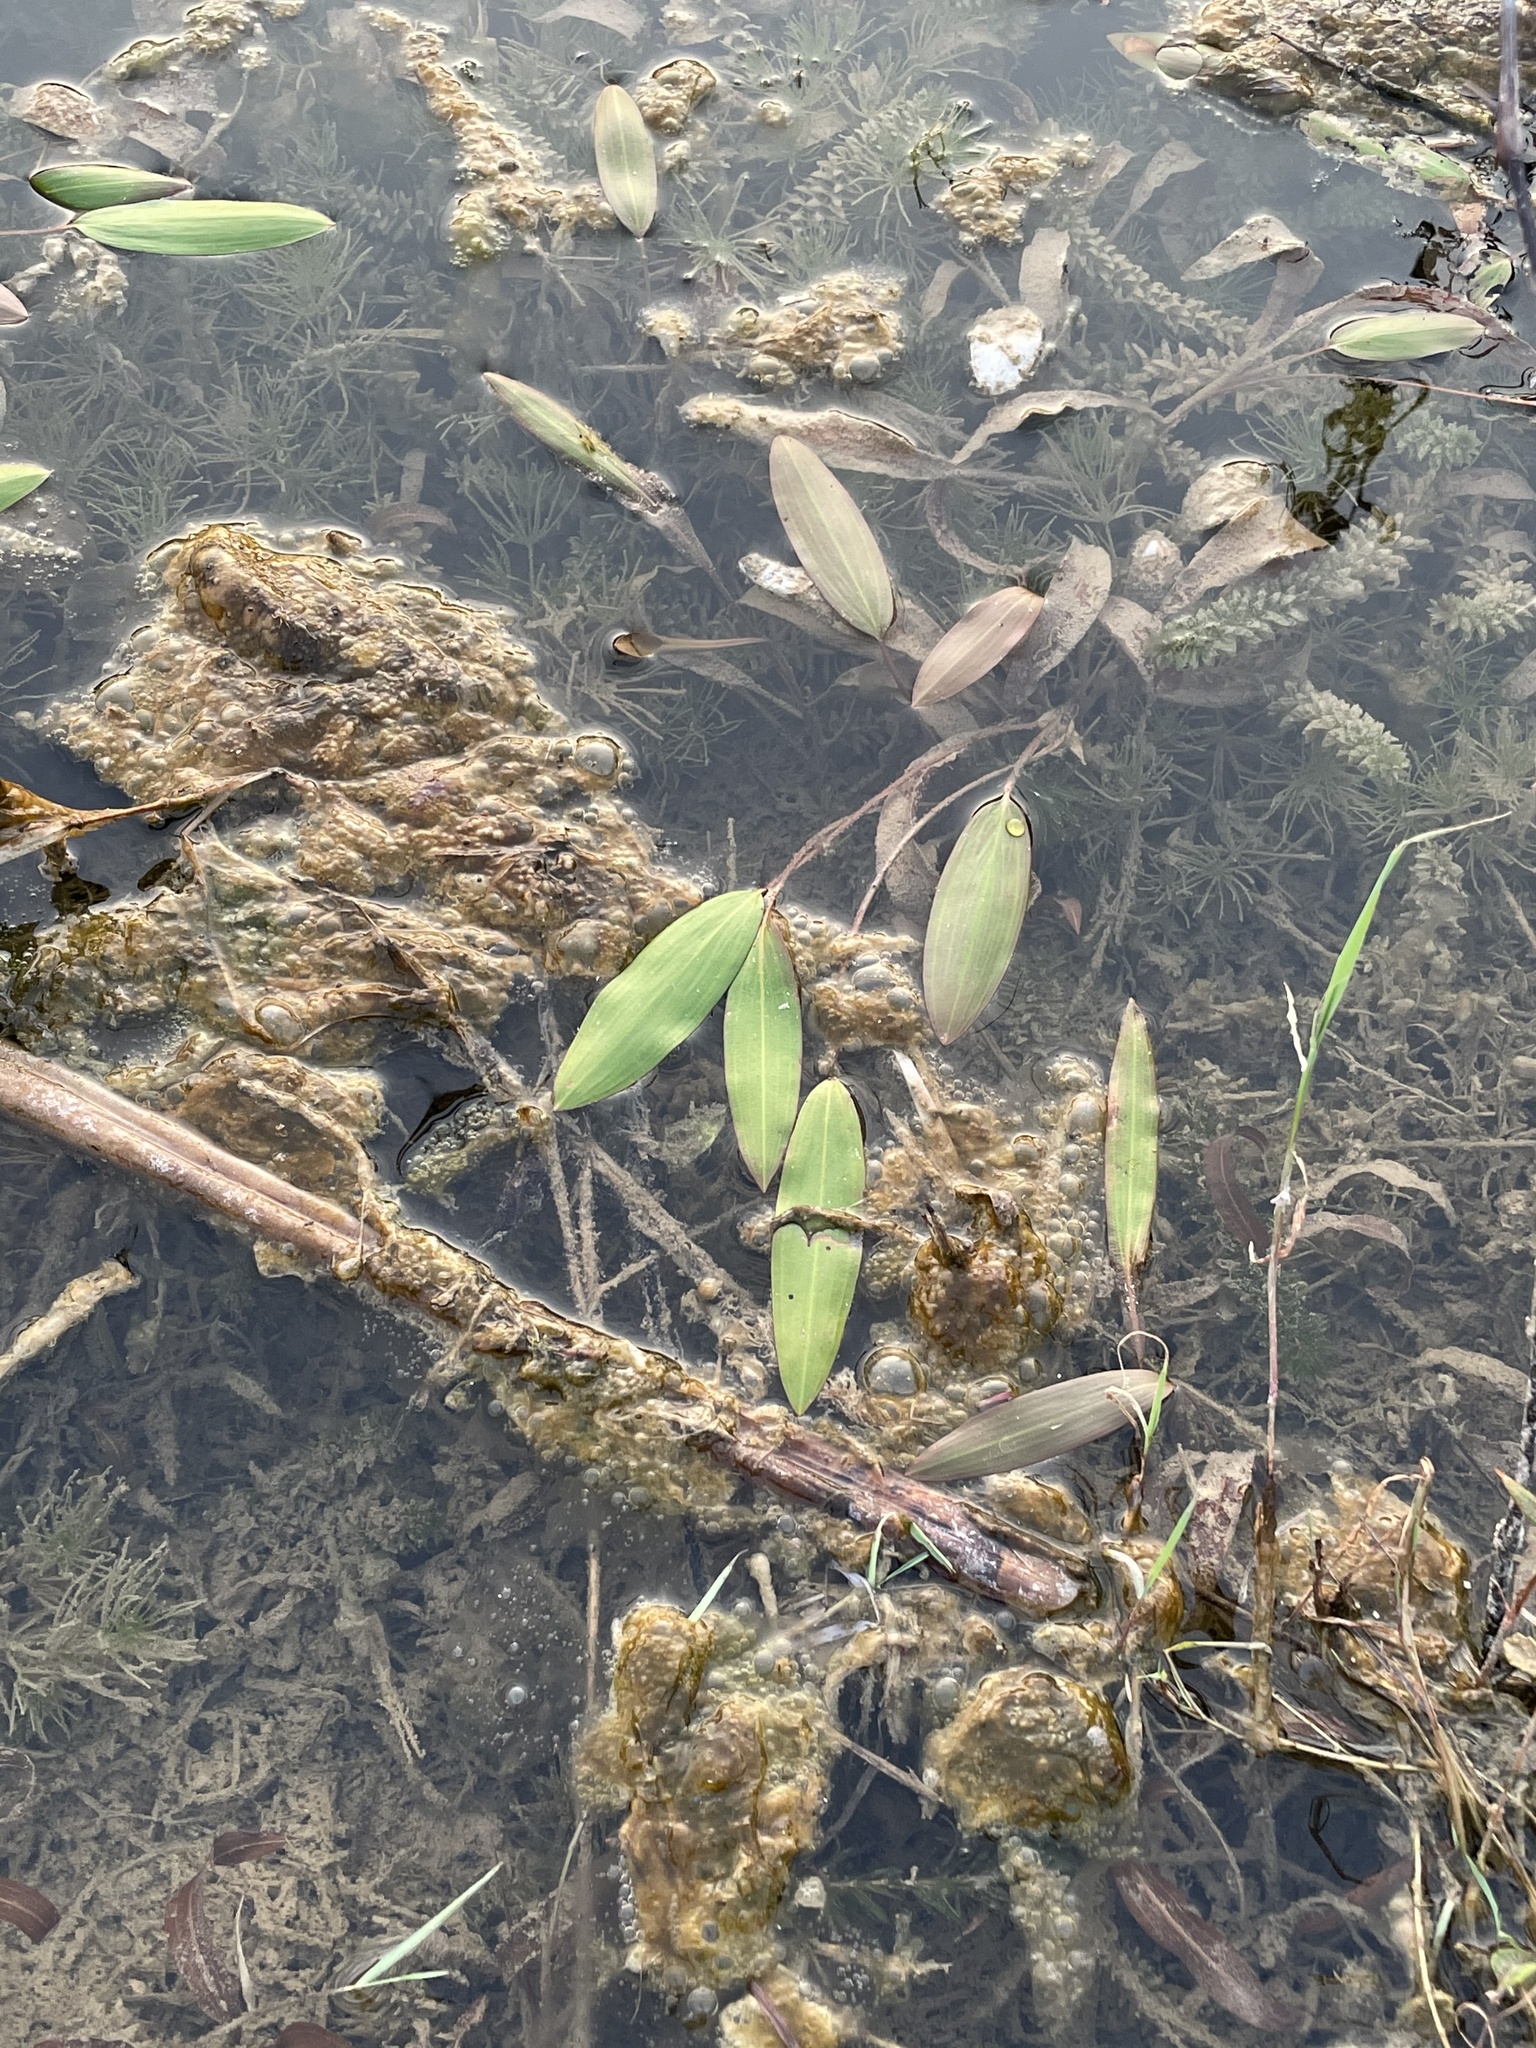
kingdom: Plantae
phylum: Tracheophyta
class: Liliopsida
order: Alismatales
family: Potamogetonaceae
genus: Potamogeton
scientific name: Potamogeton nodosus
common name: Loddon pondweed
